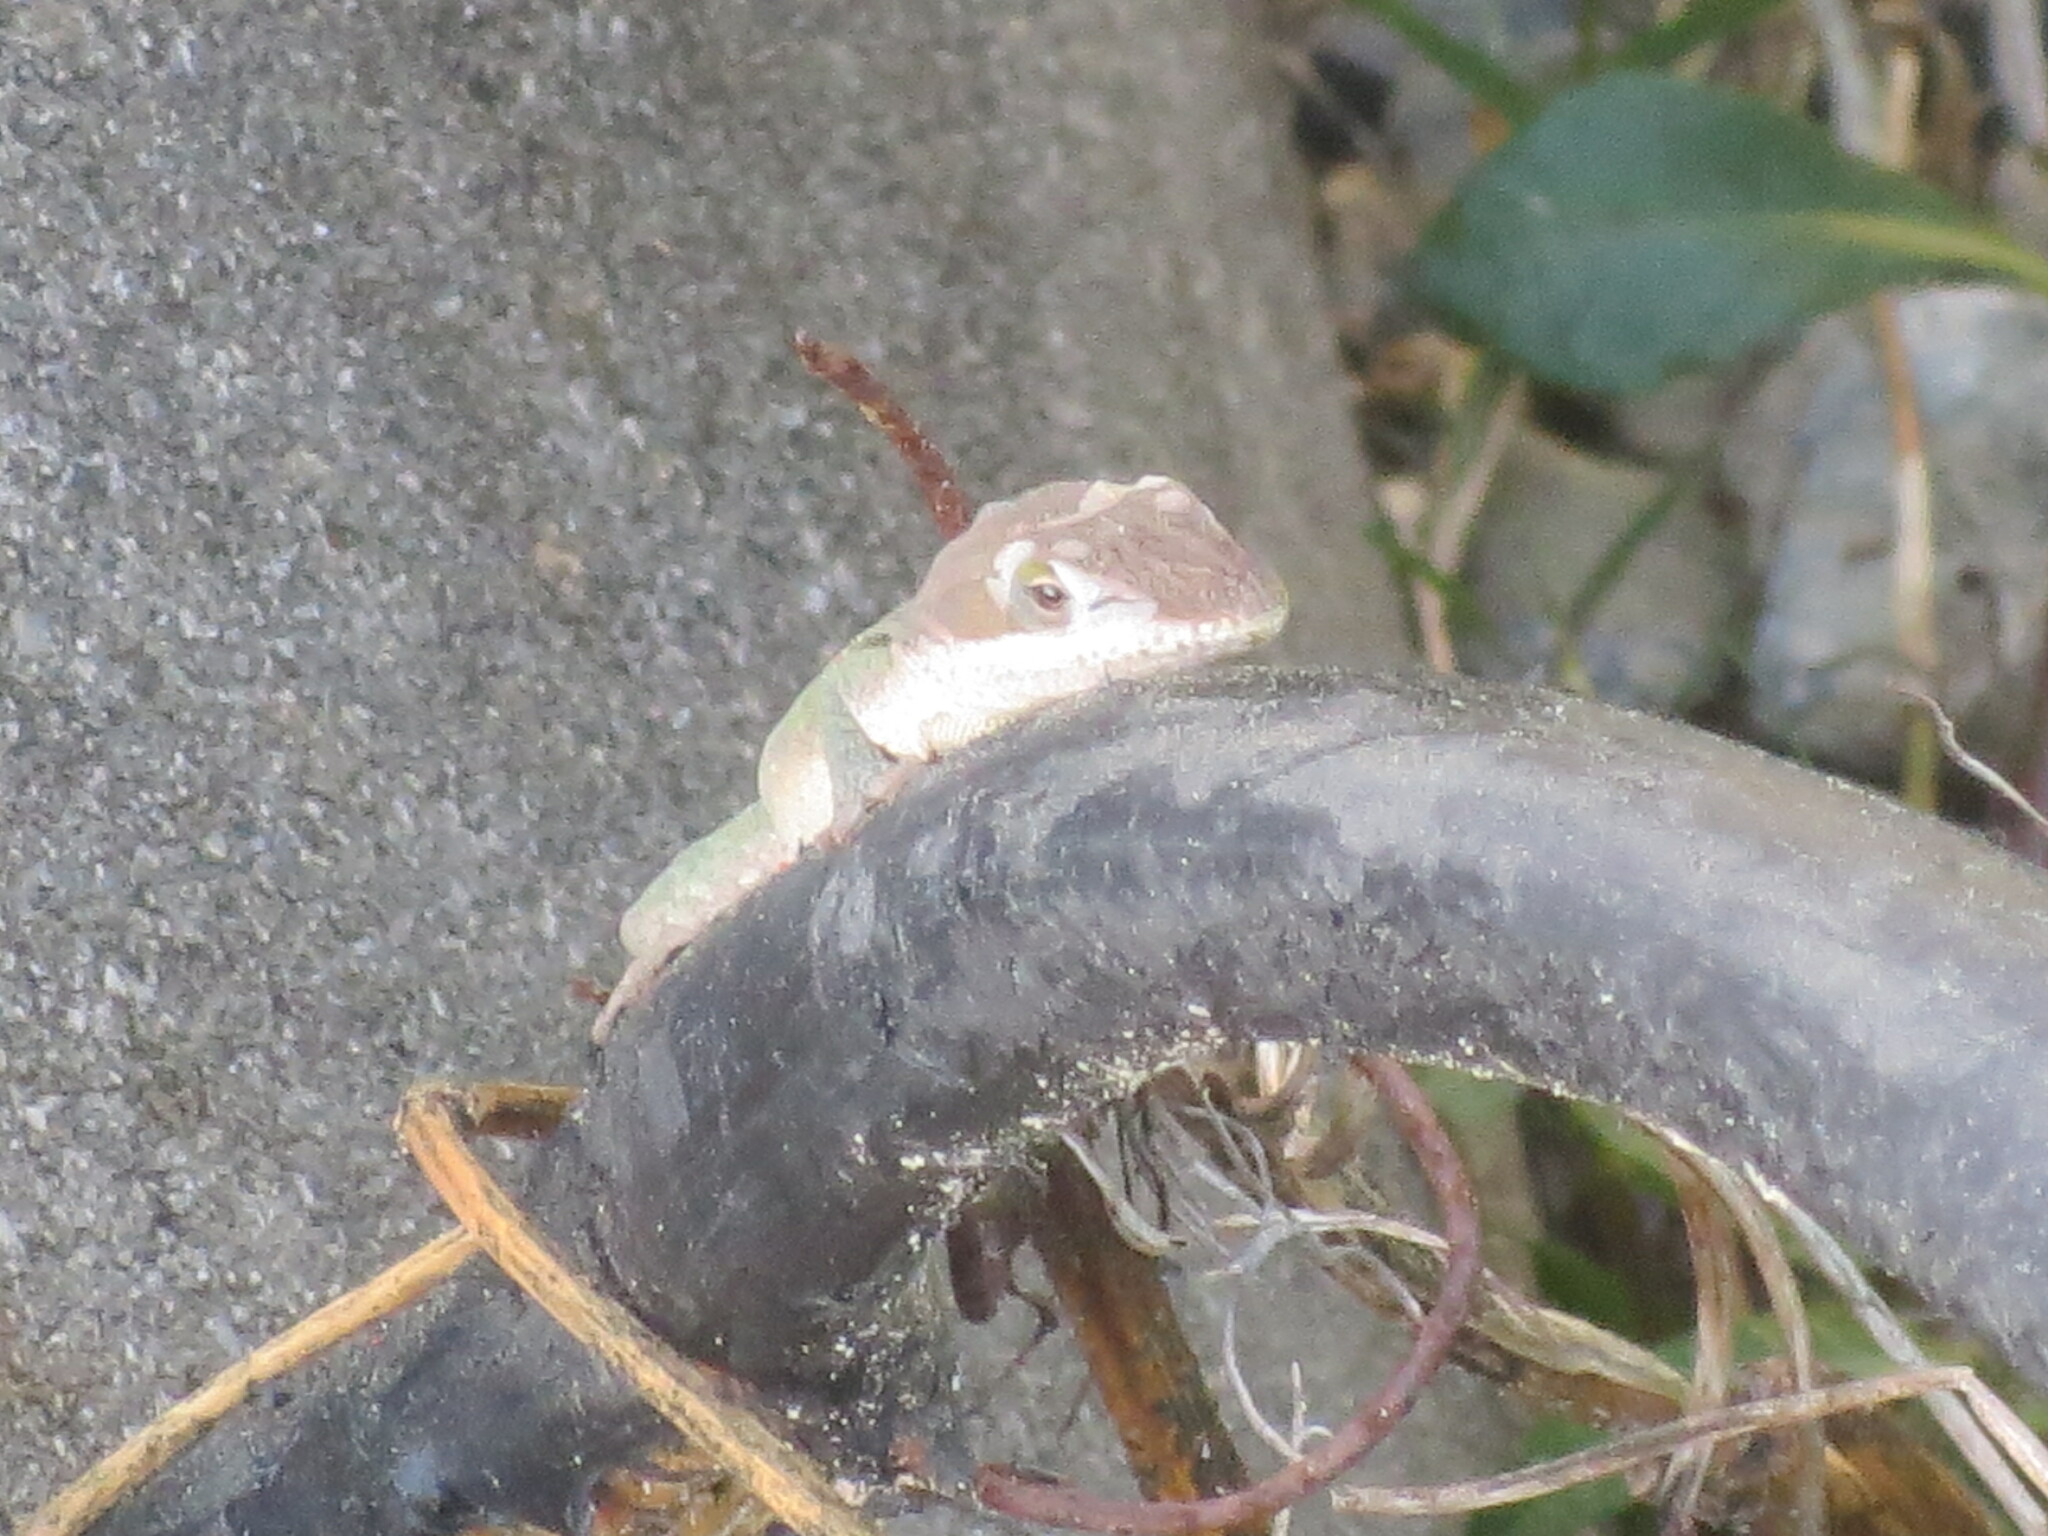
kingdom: Animalia
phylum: Chordata
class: Squamata
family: Dactyloidae
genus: Anolis
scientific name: Anolis carolinensis
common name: Green anole
